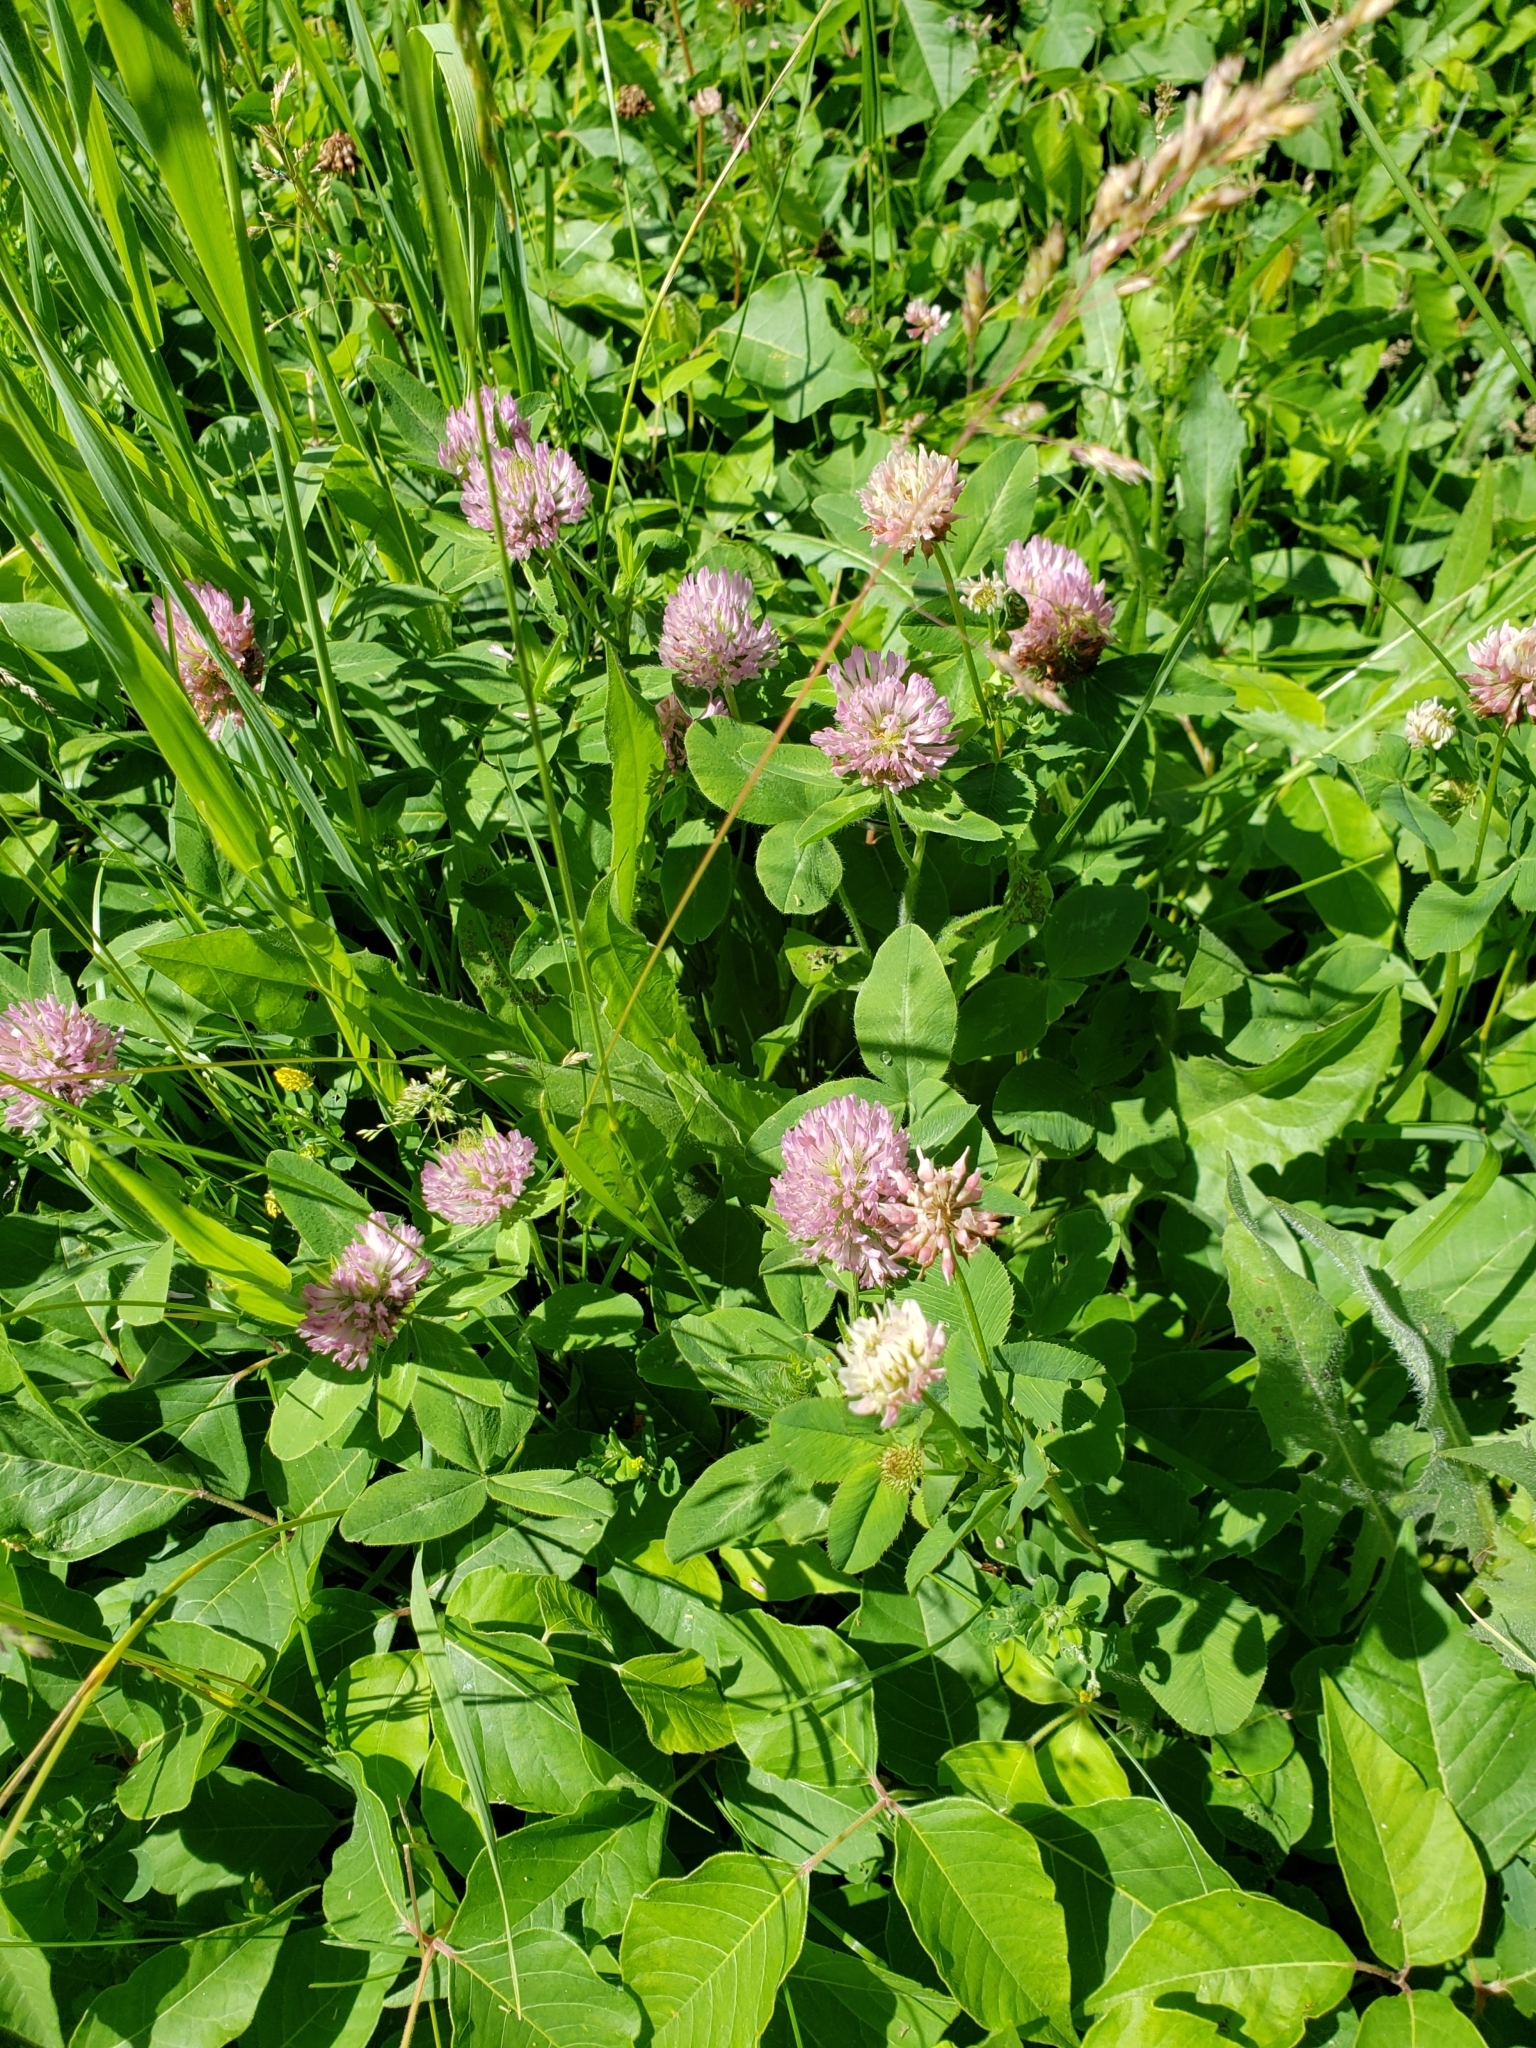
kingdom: Plantae
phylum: Tracheophyta
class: Magnoliopsida
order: Fabales
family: Fabaceae
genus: Trifolium
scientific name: Trifolium hybridum
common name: Alsike clover
